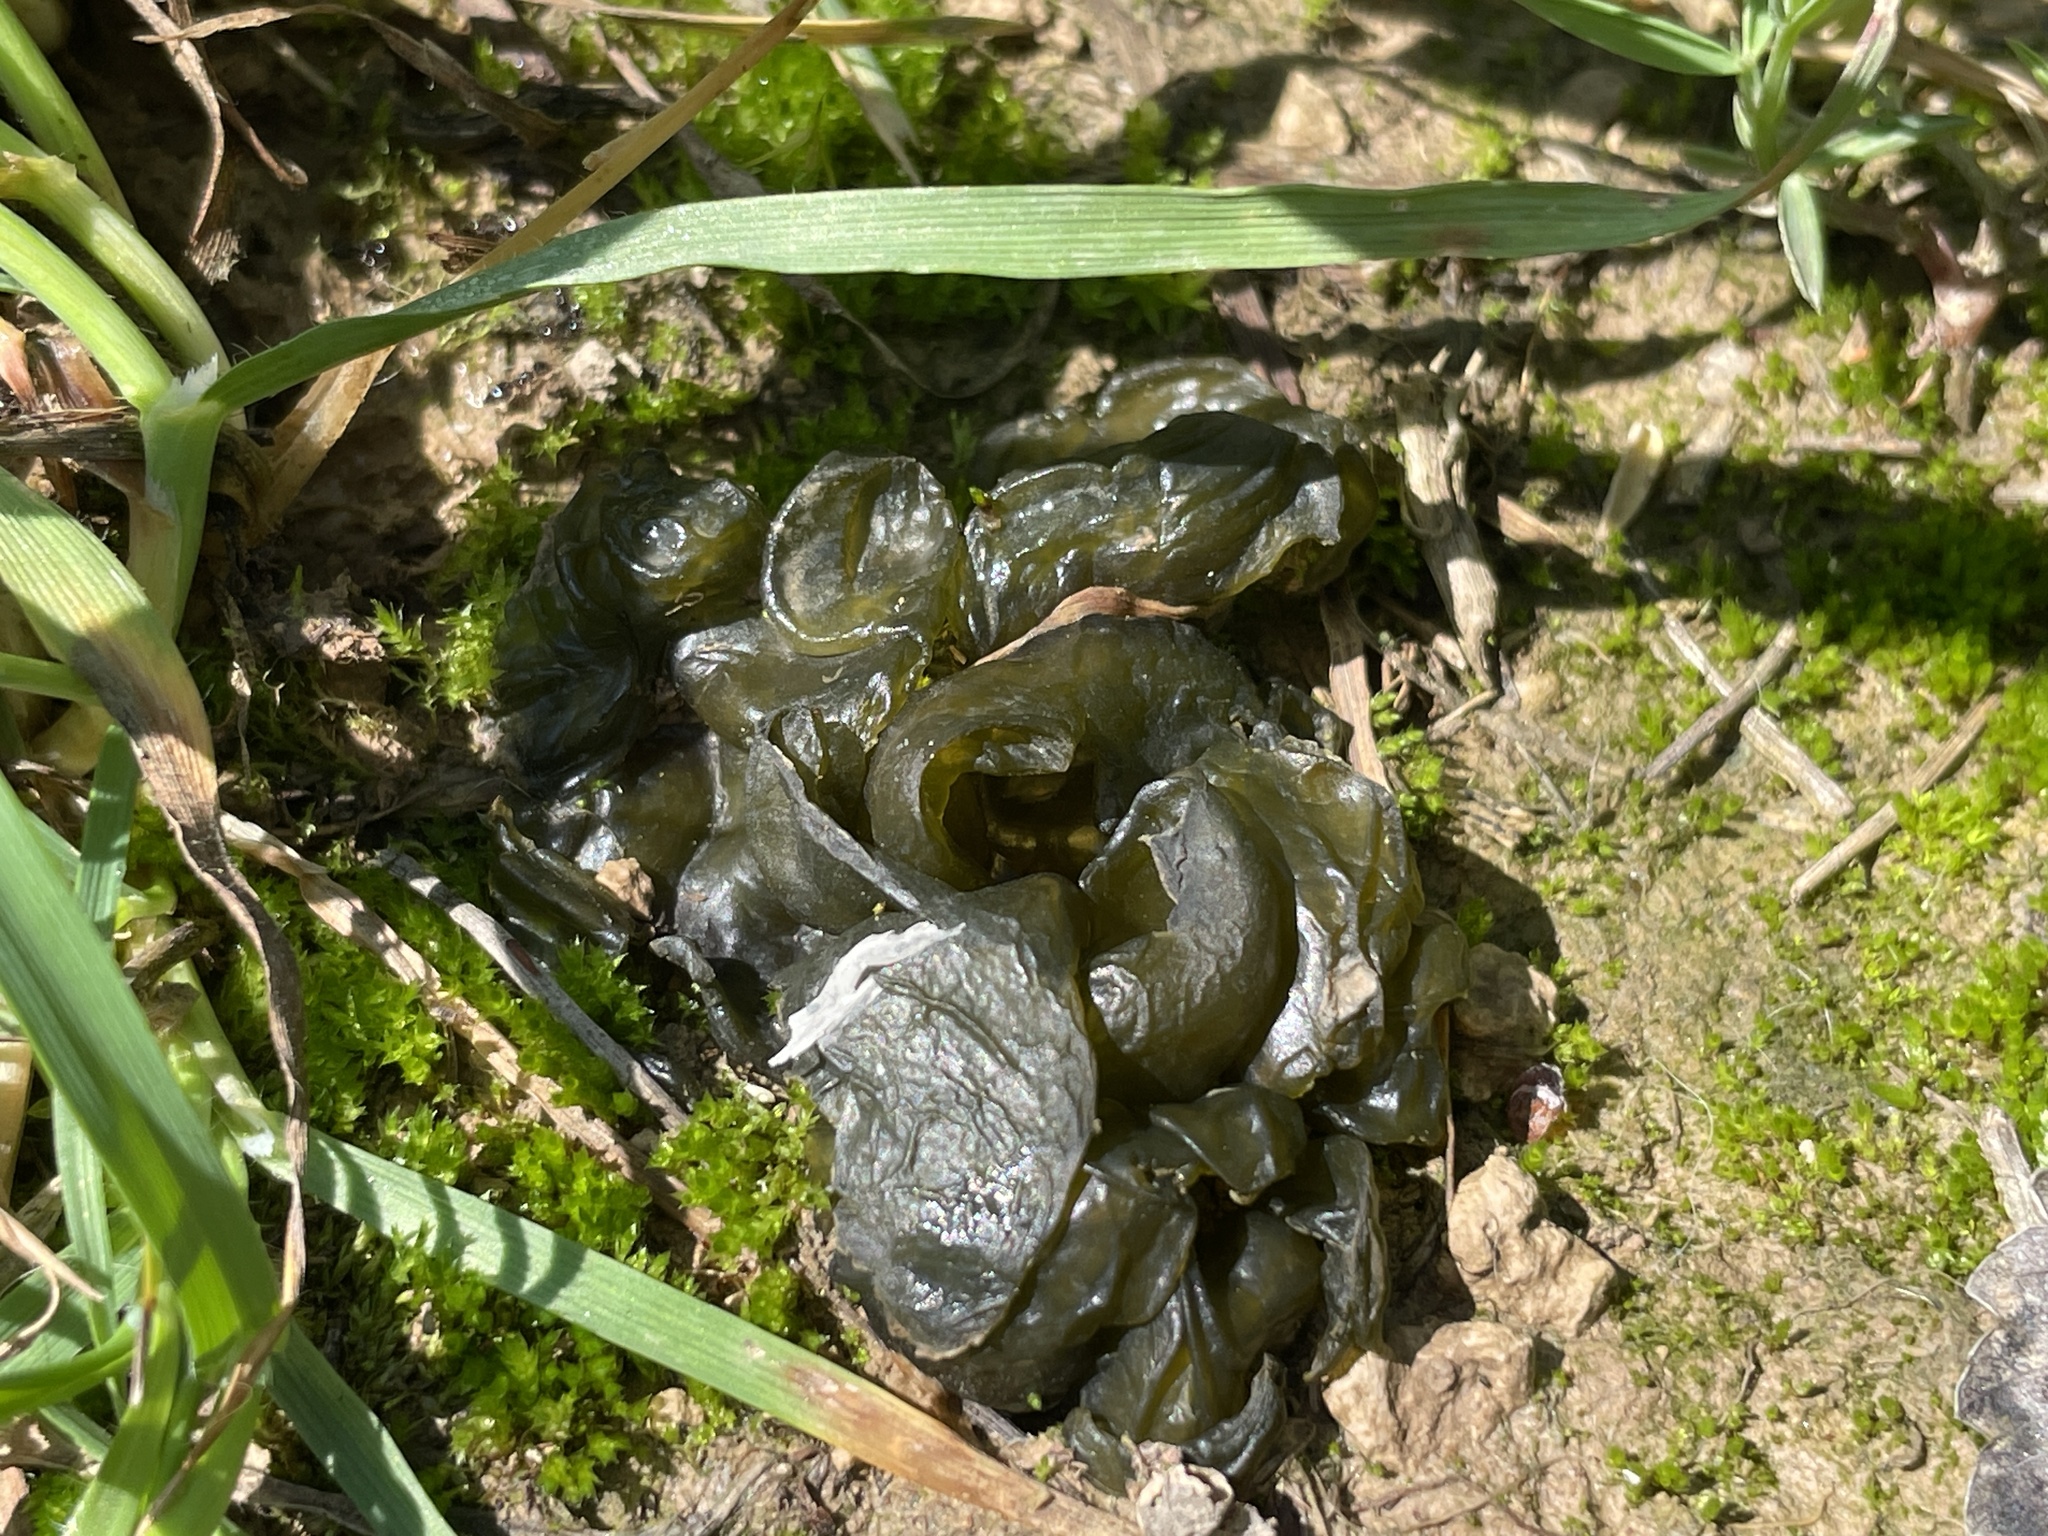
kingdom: Bacteria
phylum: Cyanobacteria
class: Cyanobacteriia
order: Cyanobacteriales
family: Nostocaceae
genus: Nostoc
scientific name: Nostoc commune
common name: Star jelly
